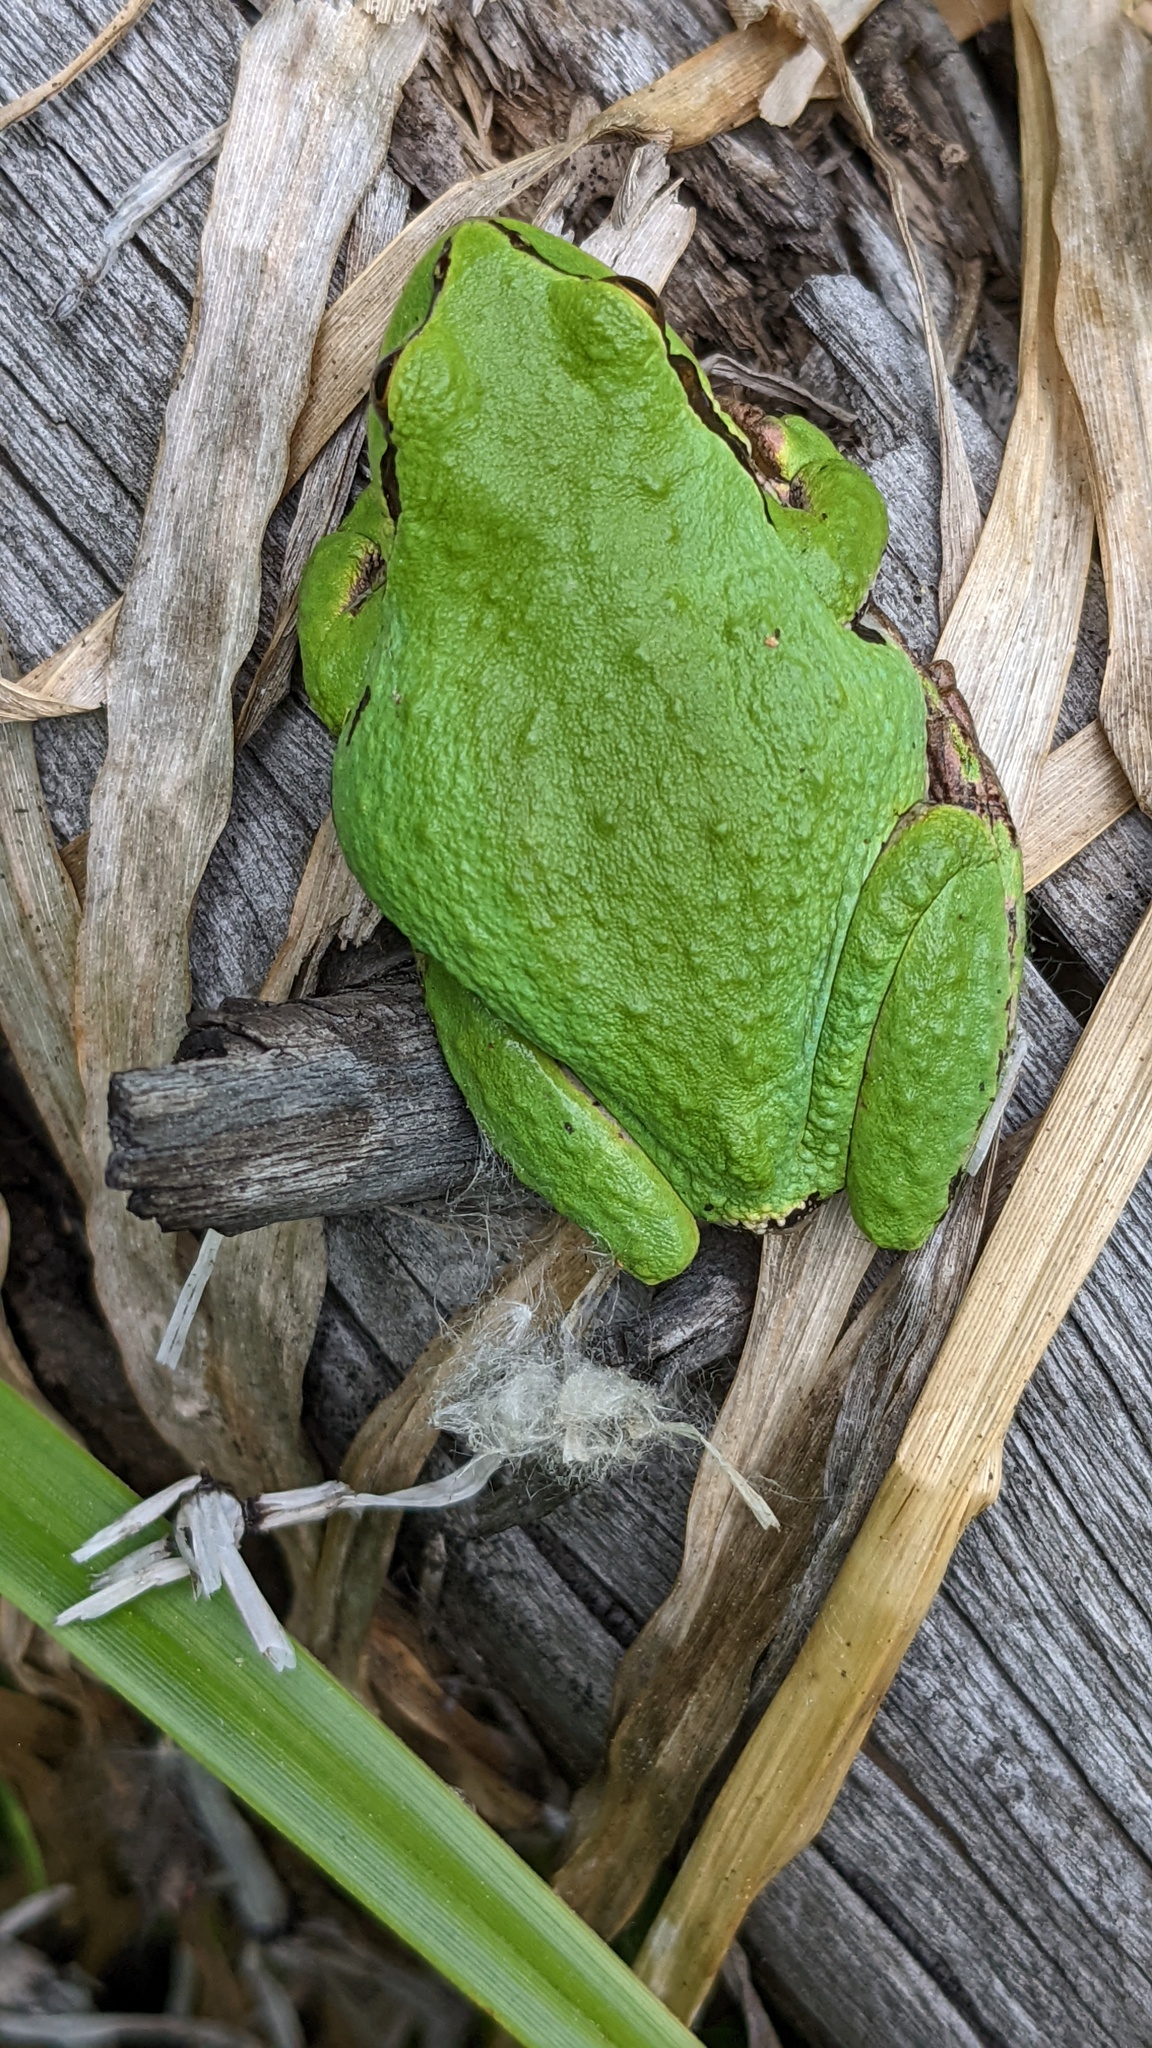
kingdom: Animalia
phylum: Chordata
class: Amphibia
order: Anura
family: Hylidae
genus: Pseudacris
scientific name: Pseudacris regilla
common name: Pacific chorus frog
